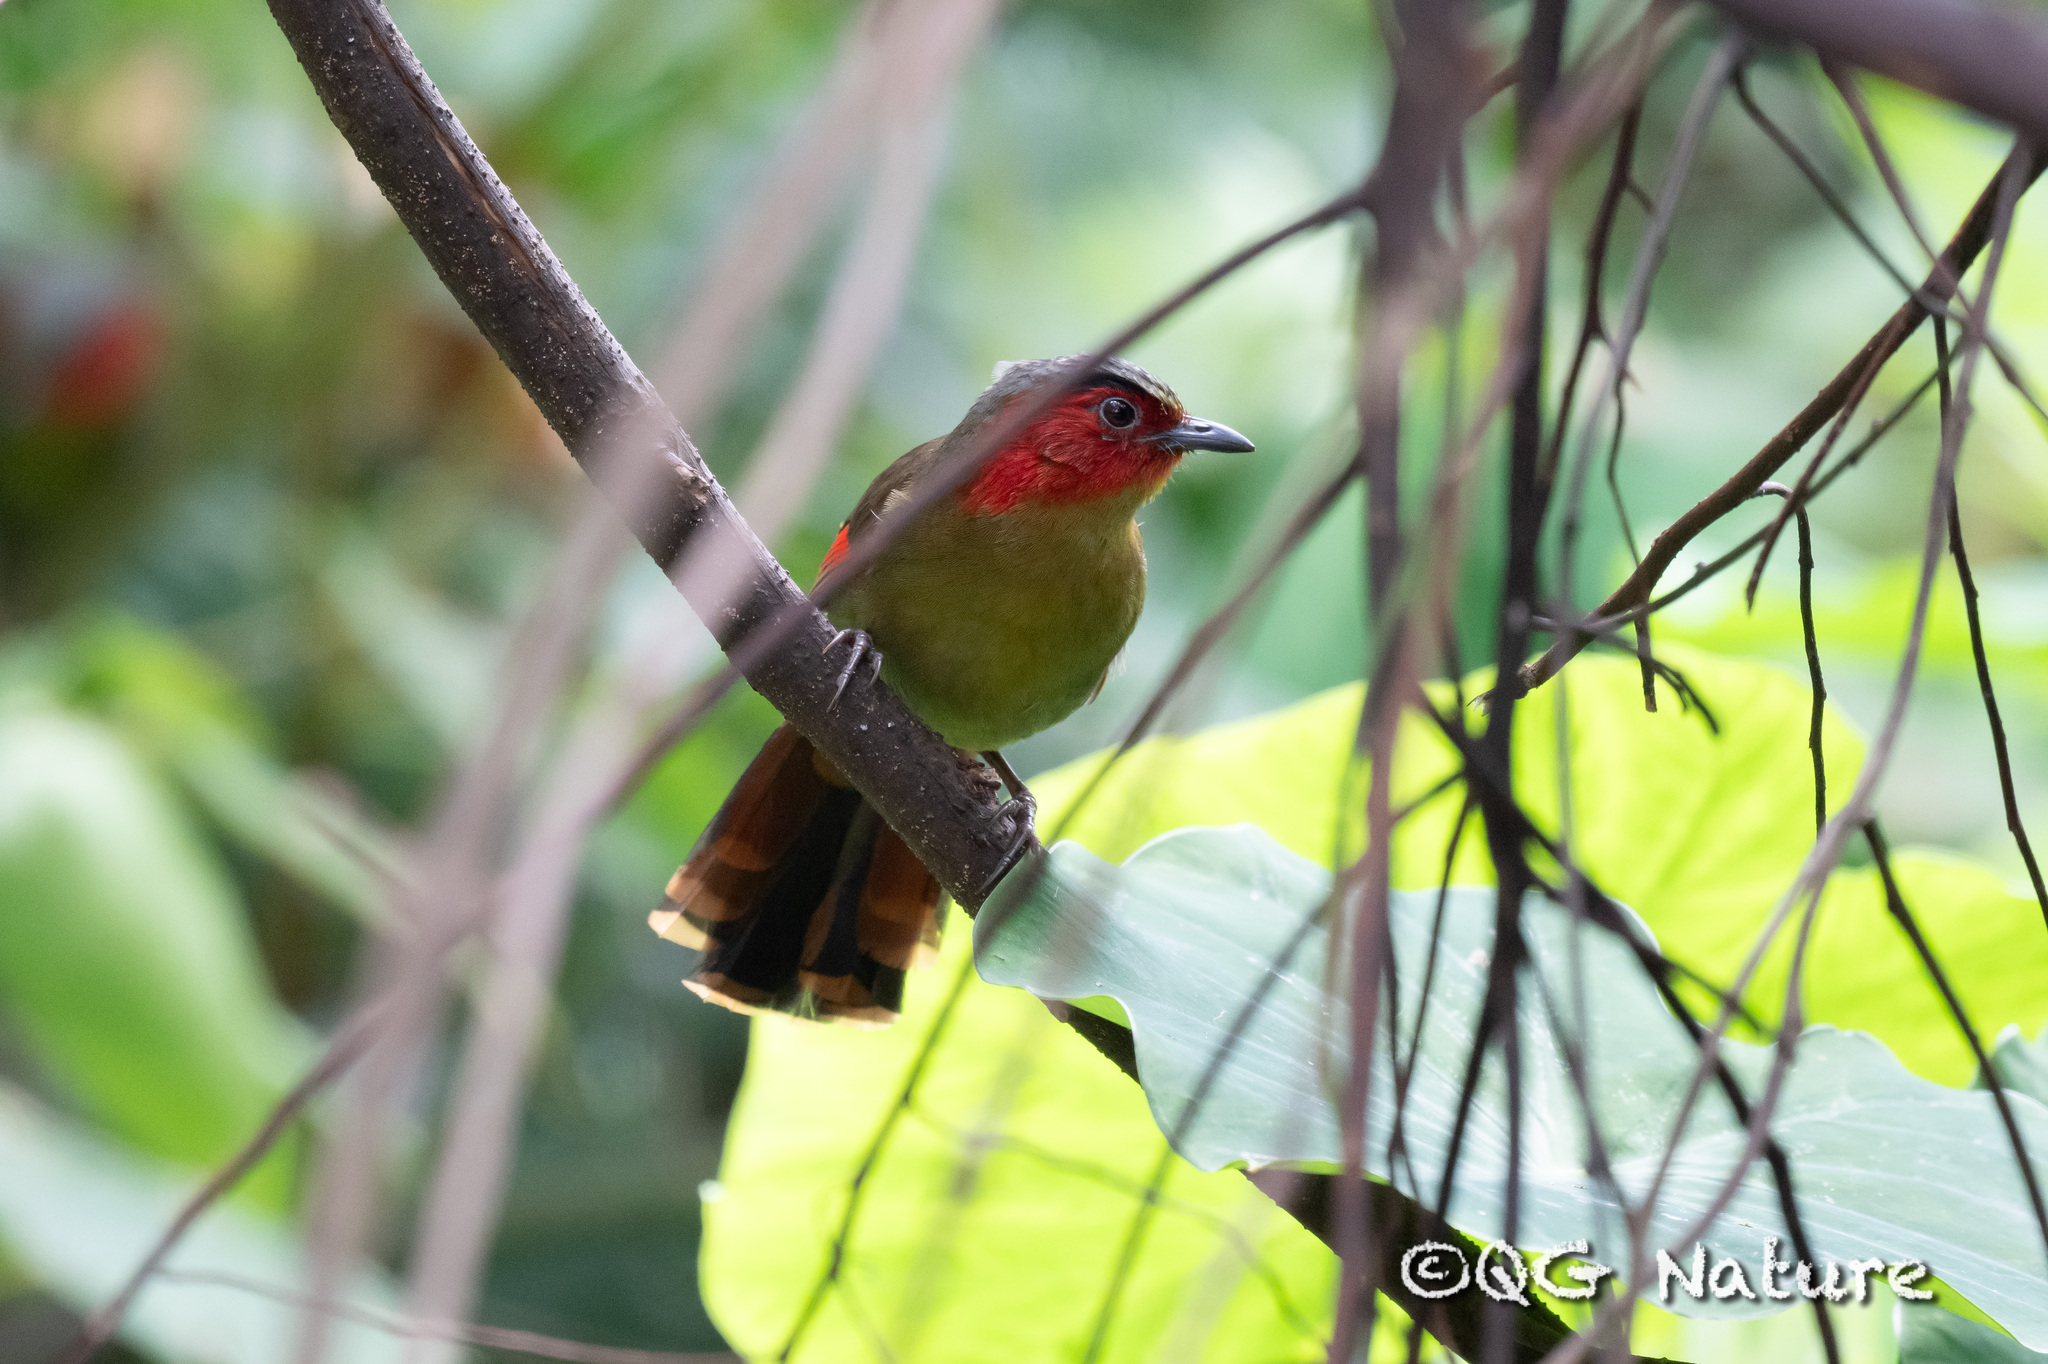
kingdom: Animalia
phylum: Chordata
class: Aves
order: Passeriformes
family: Leiothrichidae
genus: Liocichla
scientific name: Liocichla ripponi
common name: Scarlet-faced liocichla
